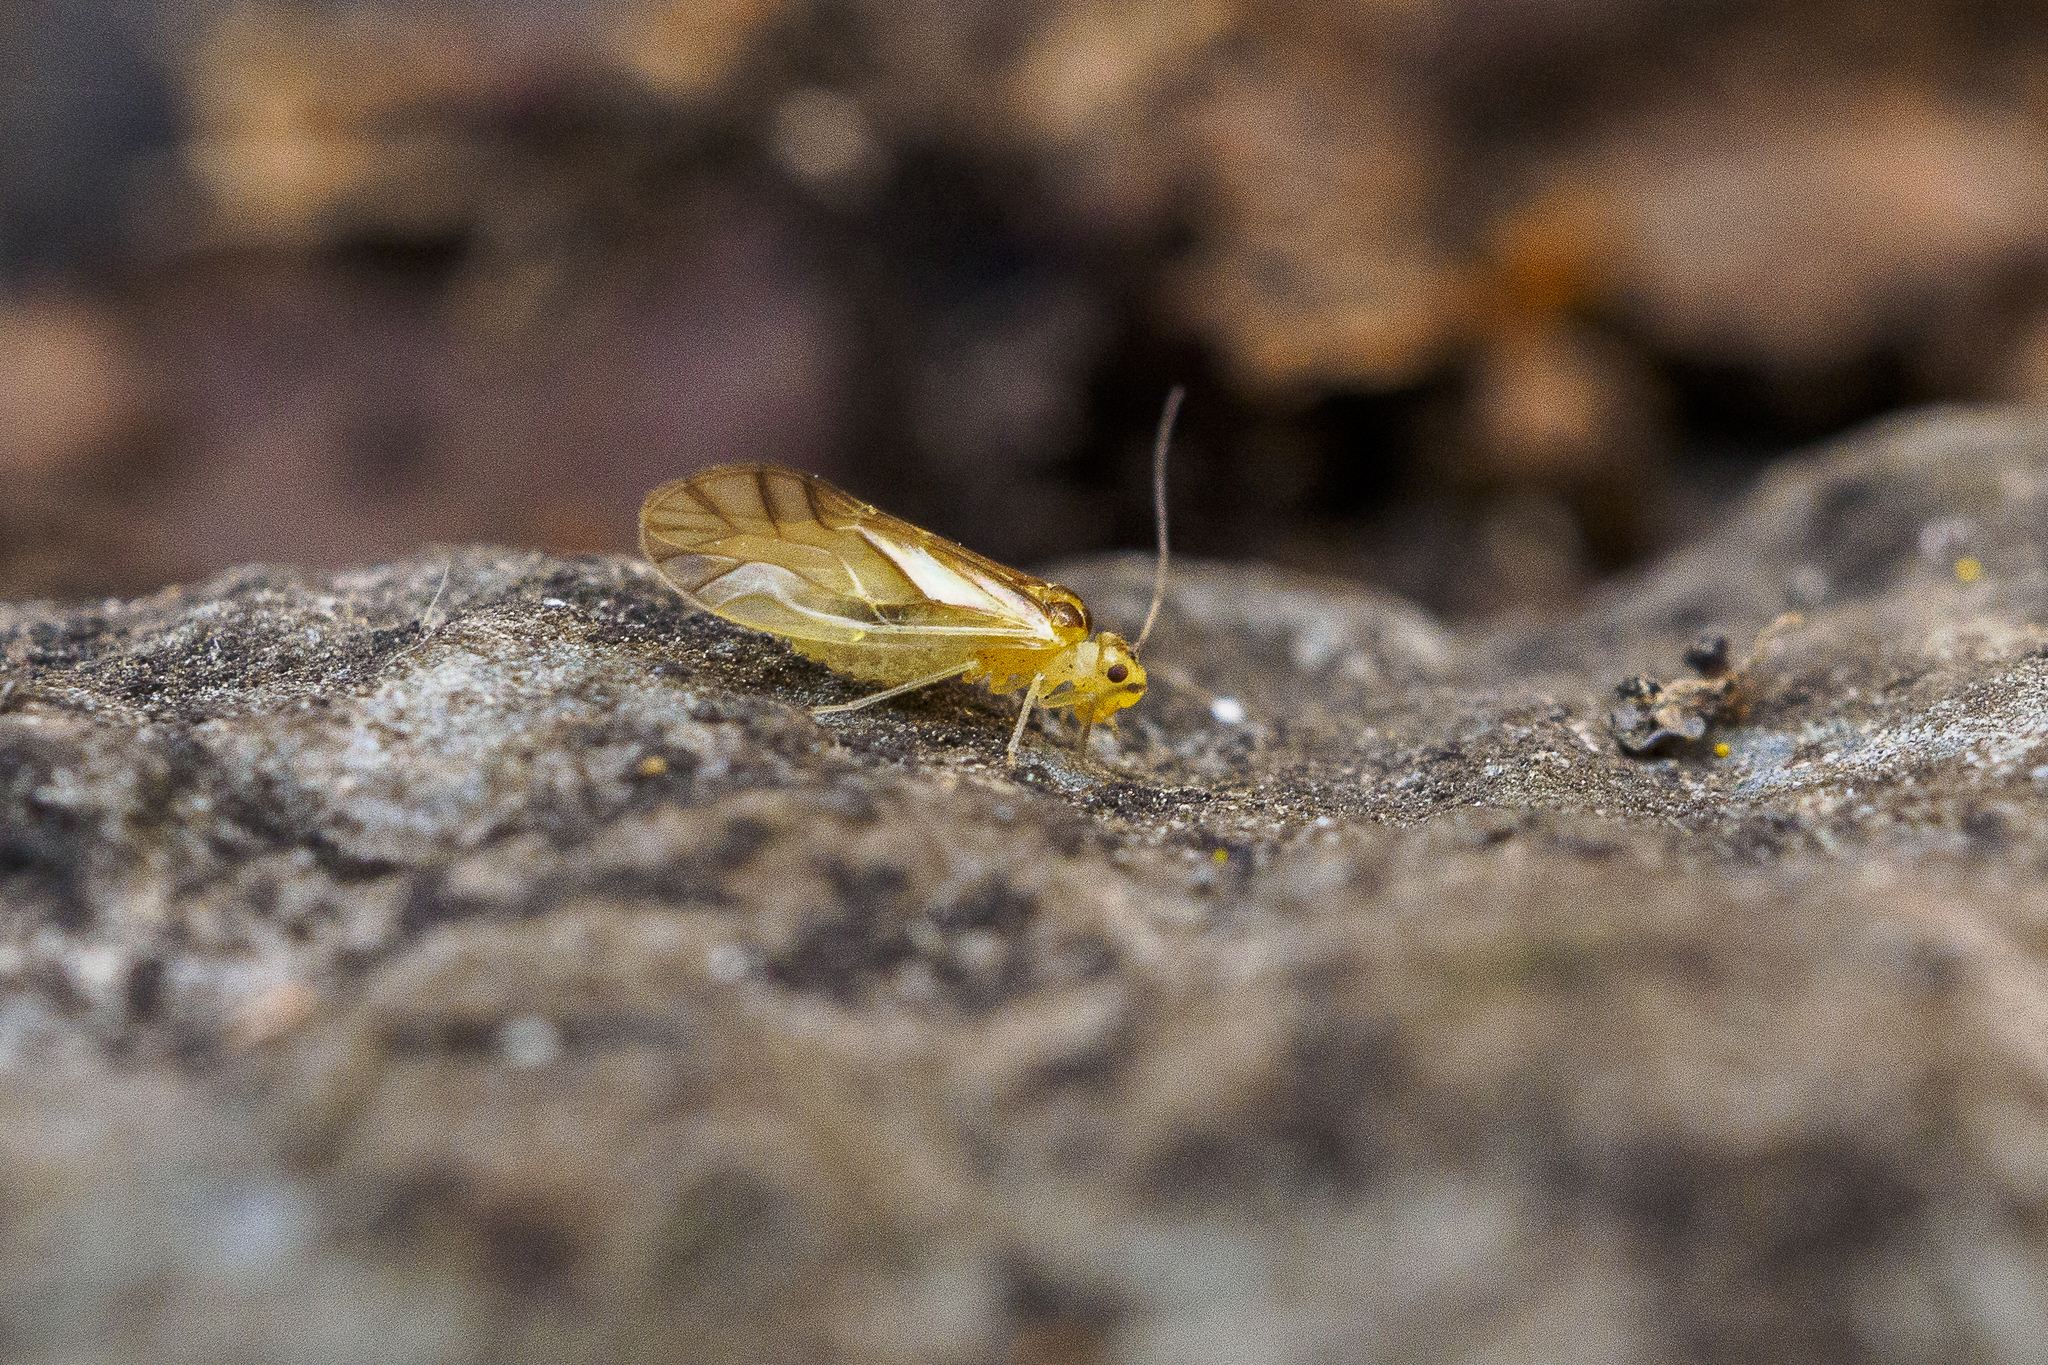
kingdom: Animalia
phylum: Arthropoda
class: Insecta
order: Psocodea
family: Caeciliusidae
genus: Valenzuela
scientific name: Valenzuela flavidus
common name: Yellow barklouse
